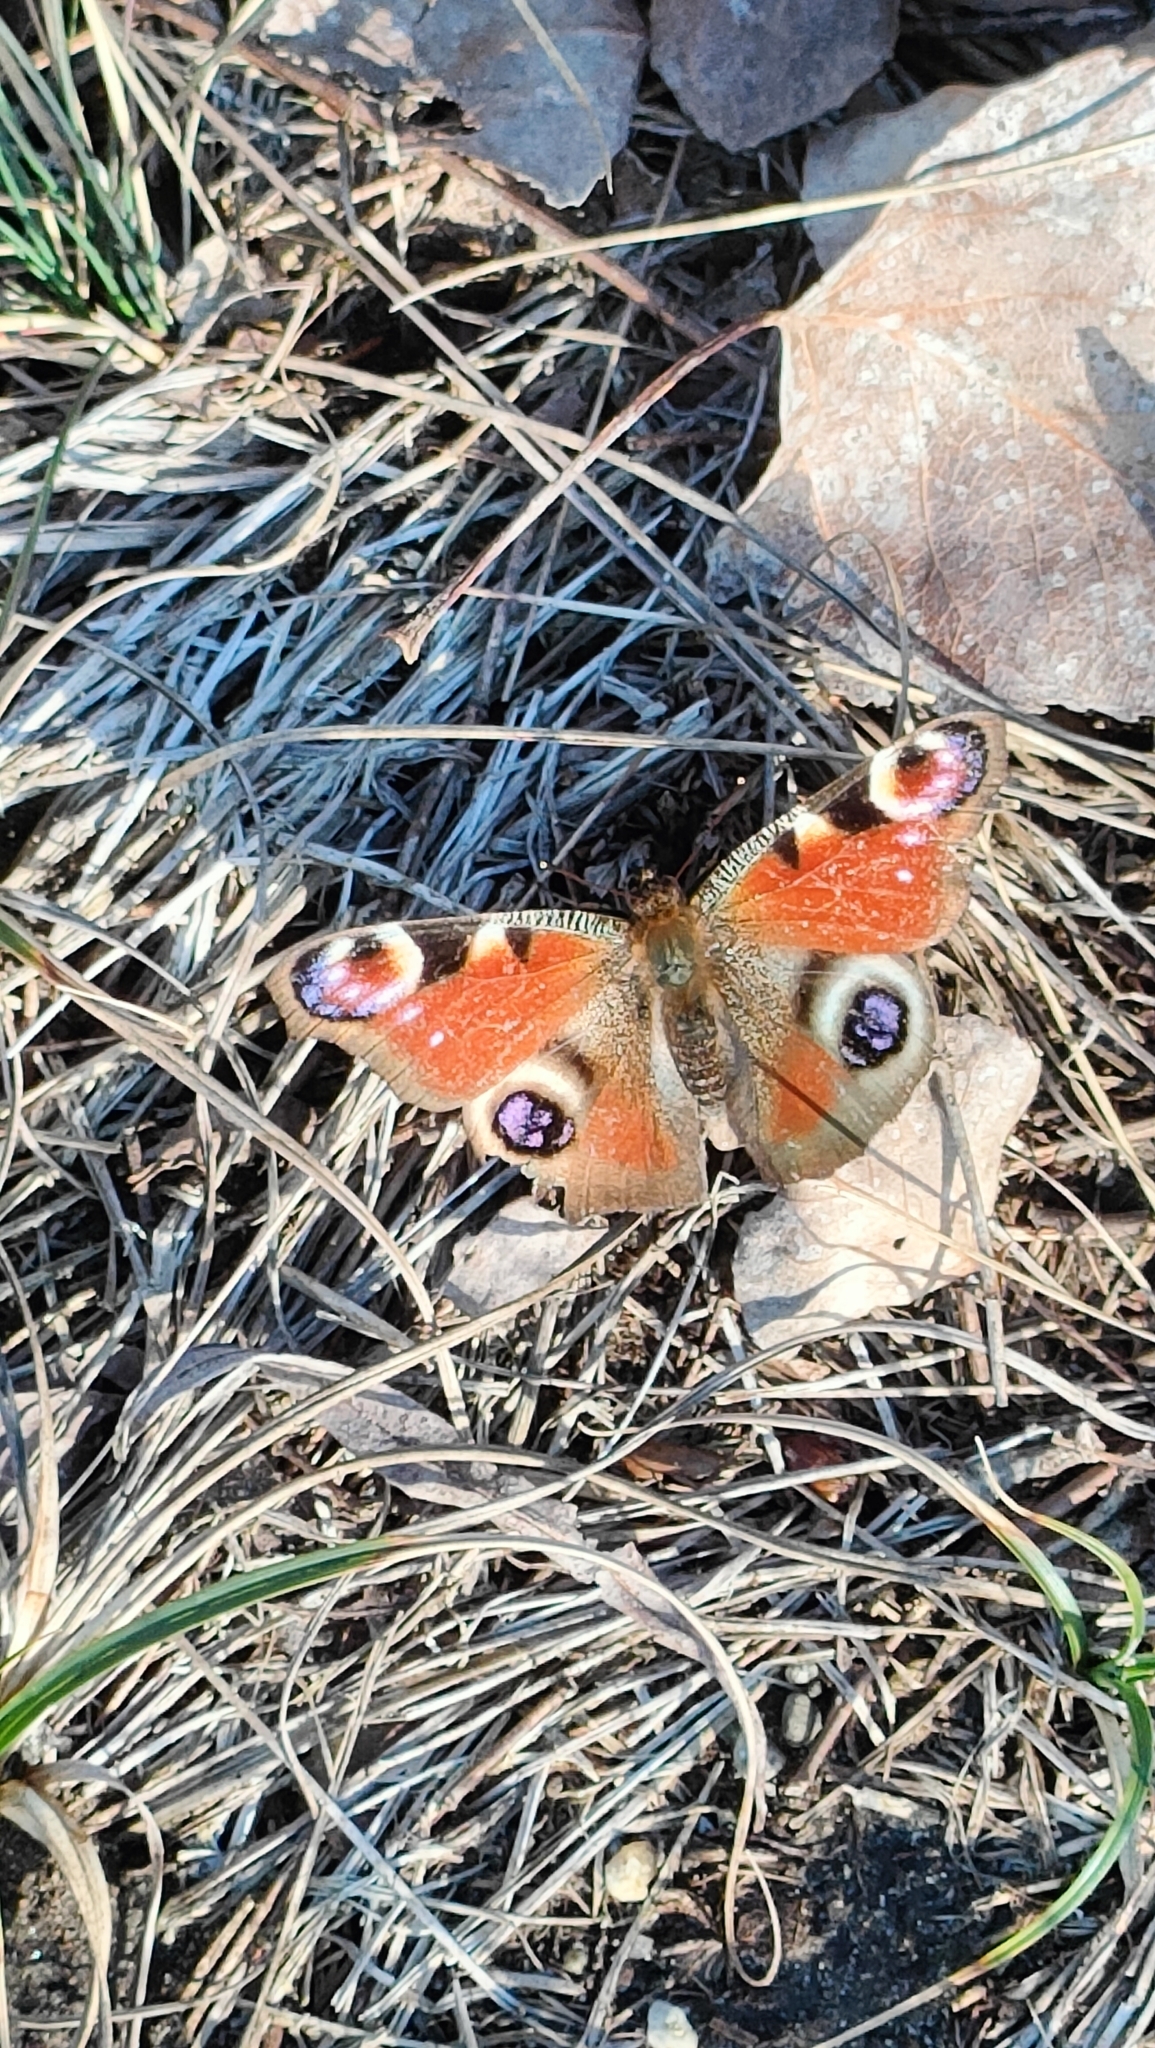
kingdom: Animalia
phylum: Arthropoda
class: Insecta
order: Lepidoptera
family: Nymphalidae
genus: Aglais
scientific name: Aglais io
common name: Peacock
